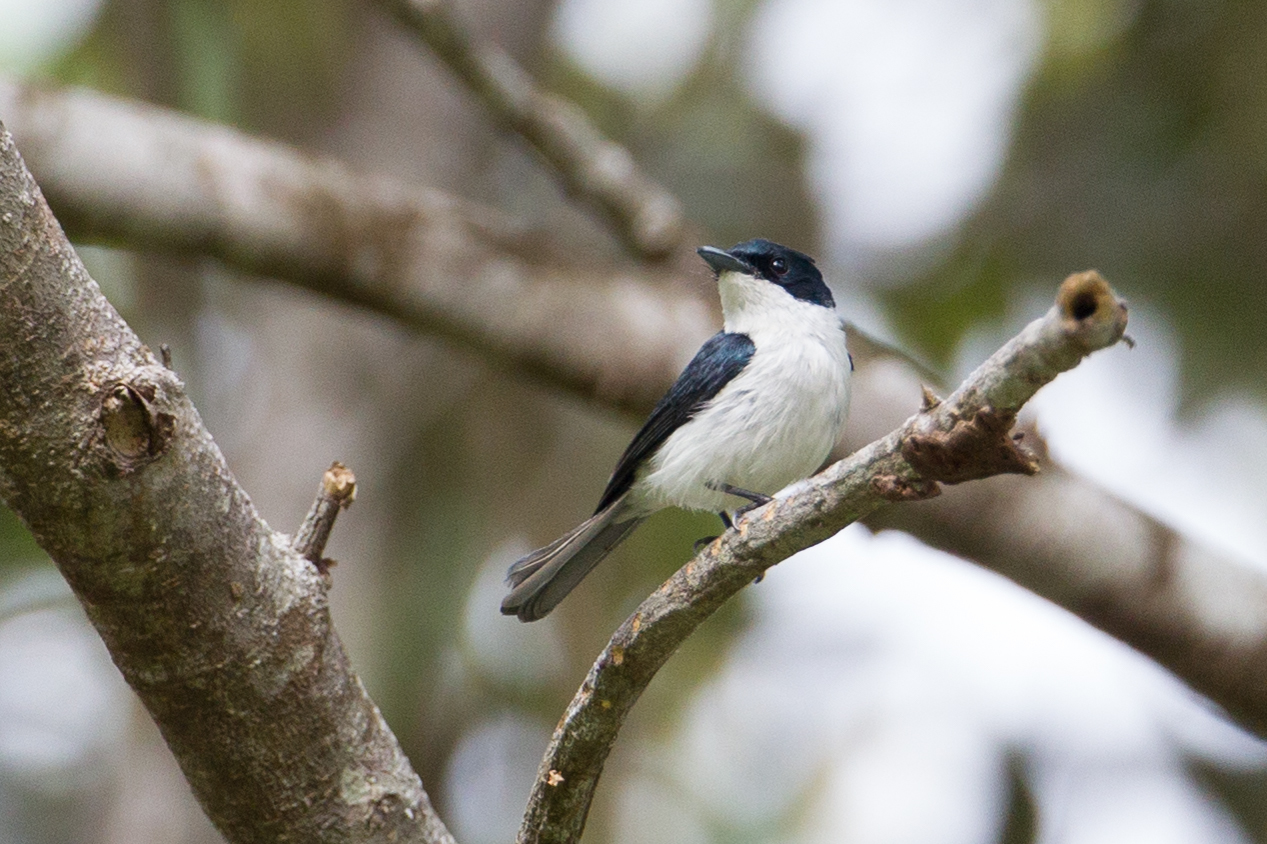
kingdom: Animalia
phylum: Chordata
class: Aves
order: Passeriformes
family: Monarchidae
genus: Myiagra
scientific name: Myiagra galeata
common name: Moluccan flycatcher
